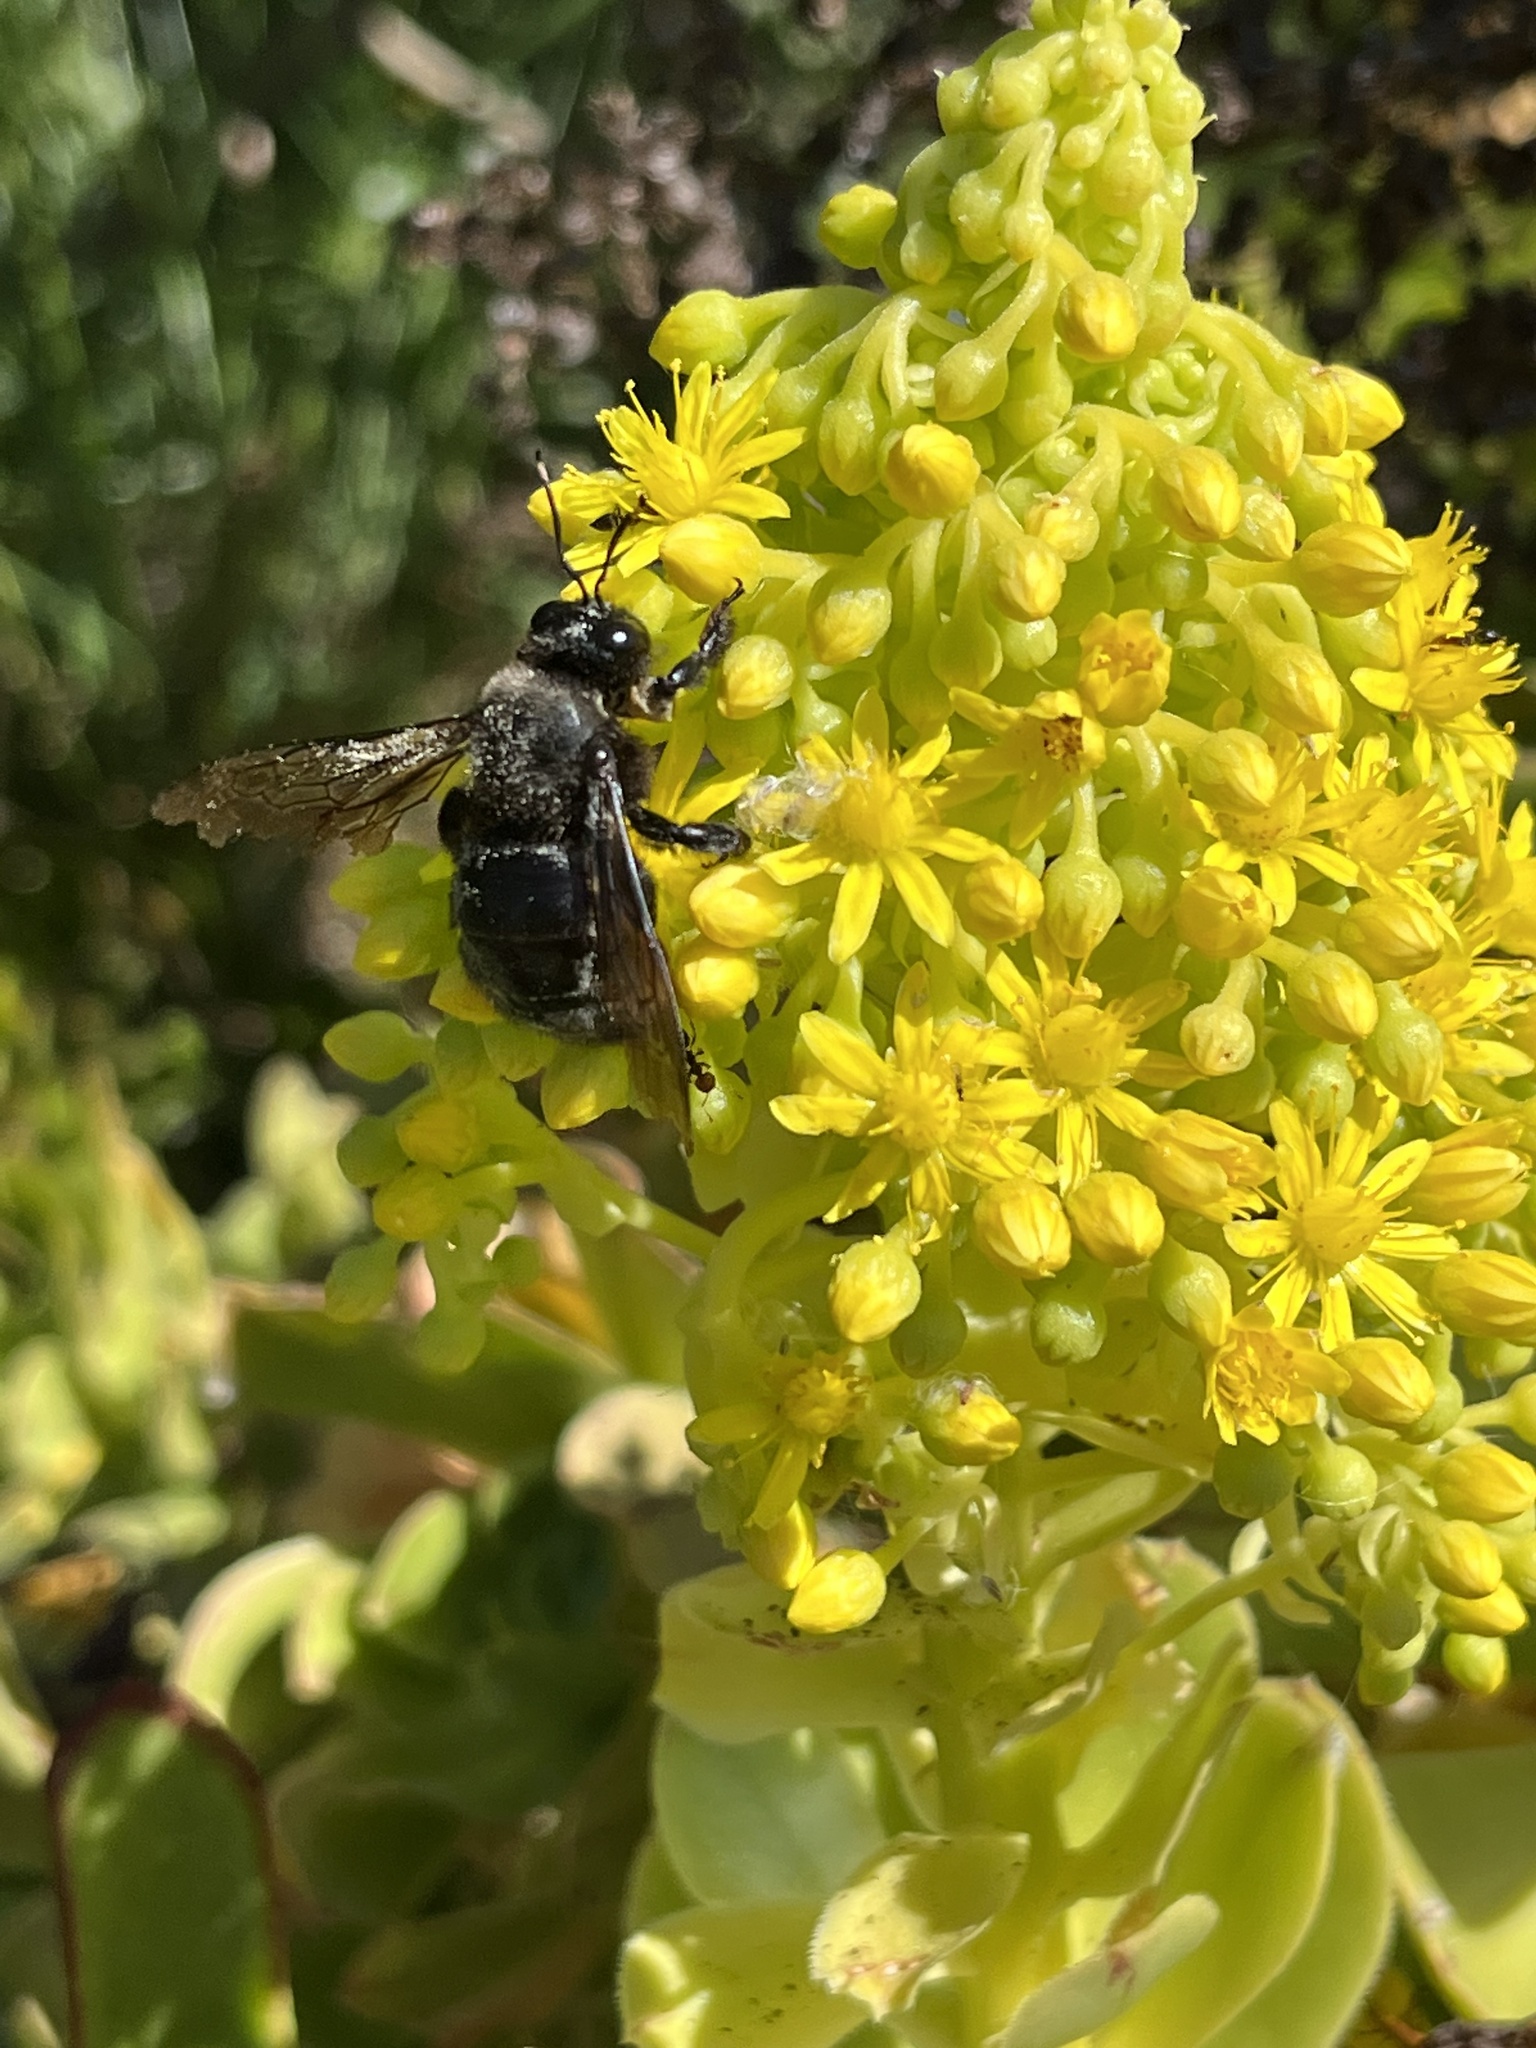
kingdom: Animalia
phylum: Arthropoda
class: Insecta
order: Hymenoptera
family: Apidae
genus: Xylocopa
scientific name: Xylocopa violacea
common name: Violet carpenter bee
